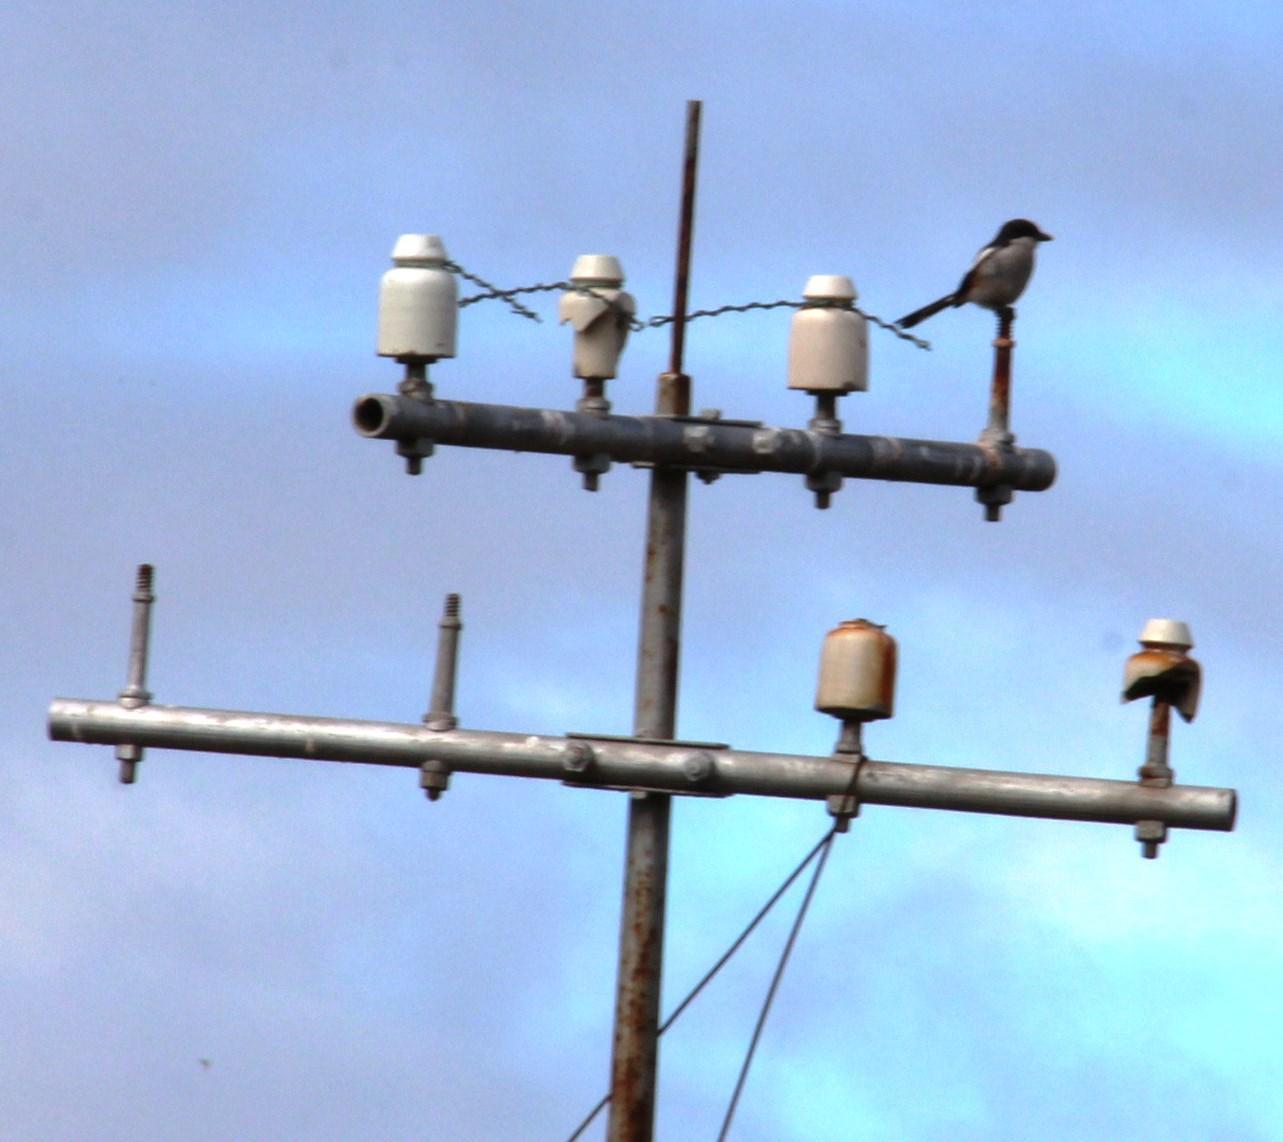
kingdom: Animalia
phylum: Chordata
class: Aves
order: Passeriformes
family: Laniidae
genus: Lanius
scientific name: Lanius collaris
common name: Southern fiscal
